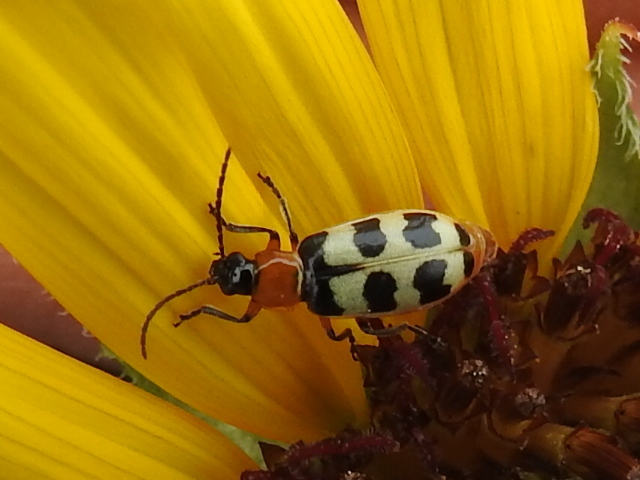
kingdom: Animalia
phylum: Arthropoda
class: Insecta
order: Coleoptera
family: Chrysomelidae
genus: Paranapiacaba
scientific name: Paranapiacaba tricincta
